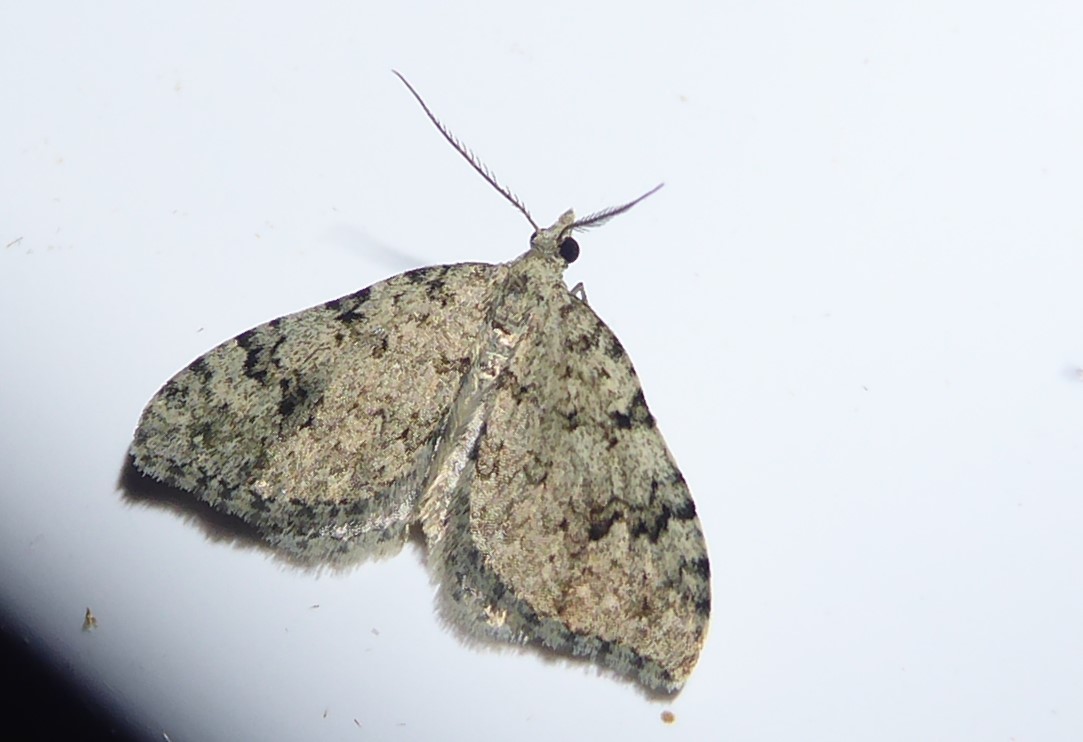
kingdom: Animalia
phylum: Arthropoda
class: Insecta
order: Lepidoptera
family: Geometridae
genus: Helastia
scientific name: Helastia cinerearia
